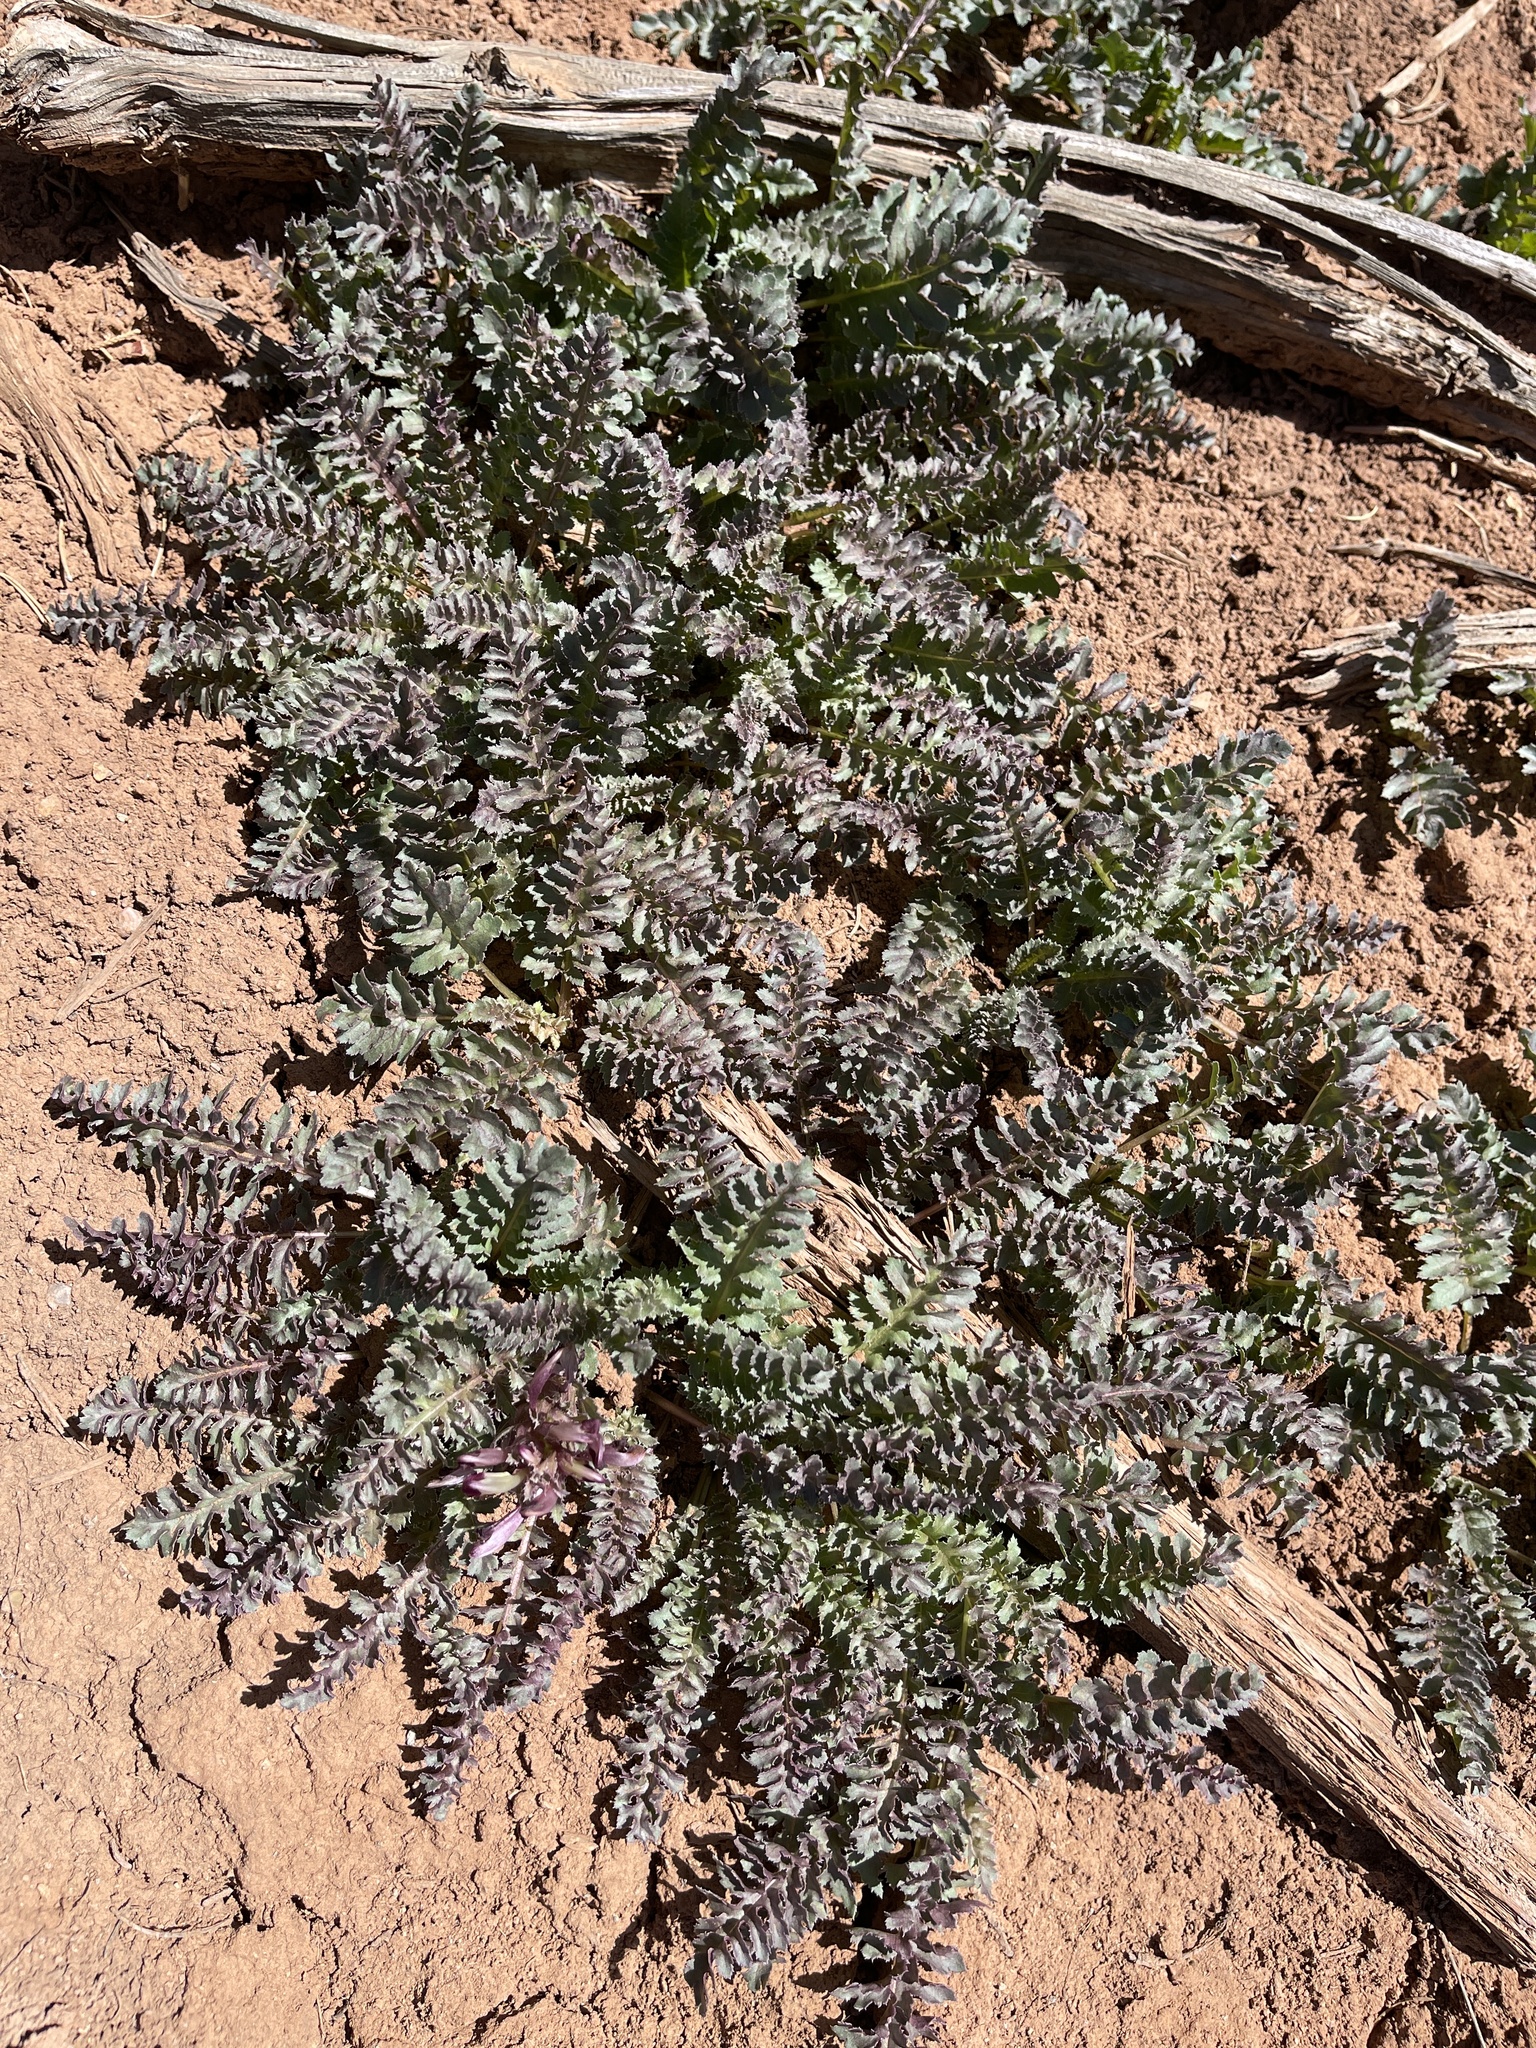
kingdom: Plantae
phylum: Tracheophyta
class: Magnoliopsida
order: Lamiales
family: Orobanchaceae
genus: Pedicularis
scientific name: Pedicularis centranthera
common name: Dwarf lousewort
